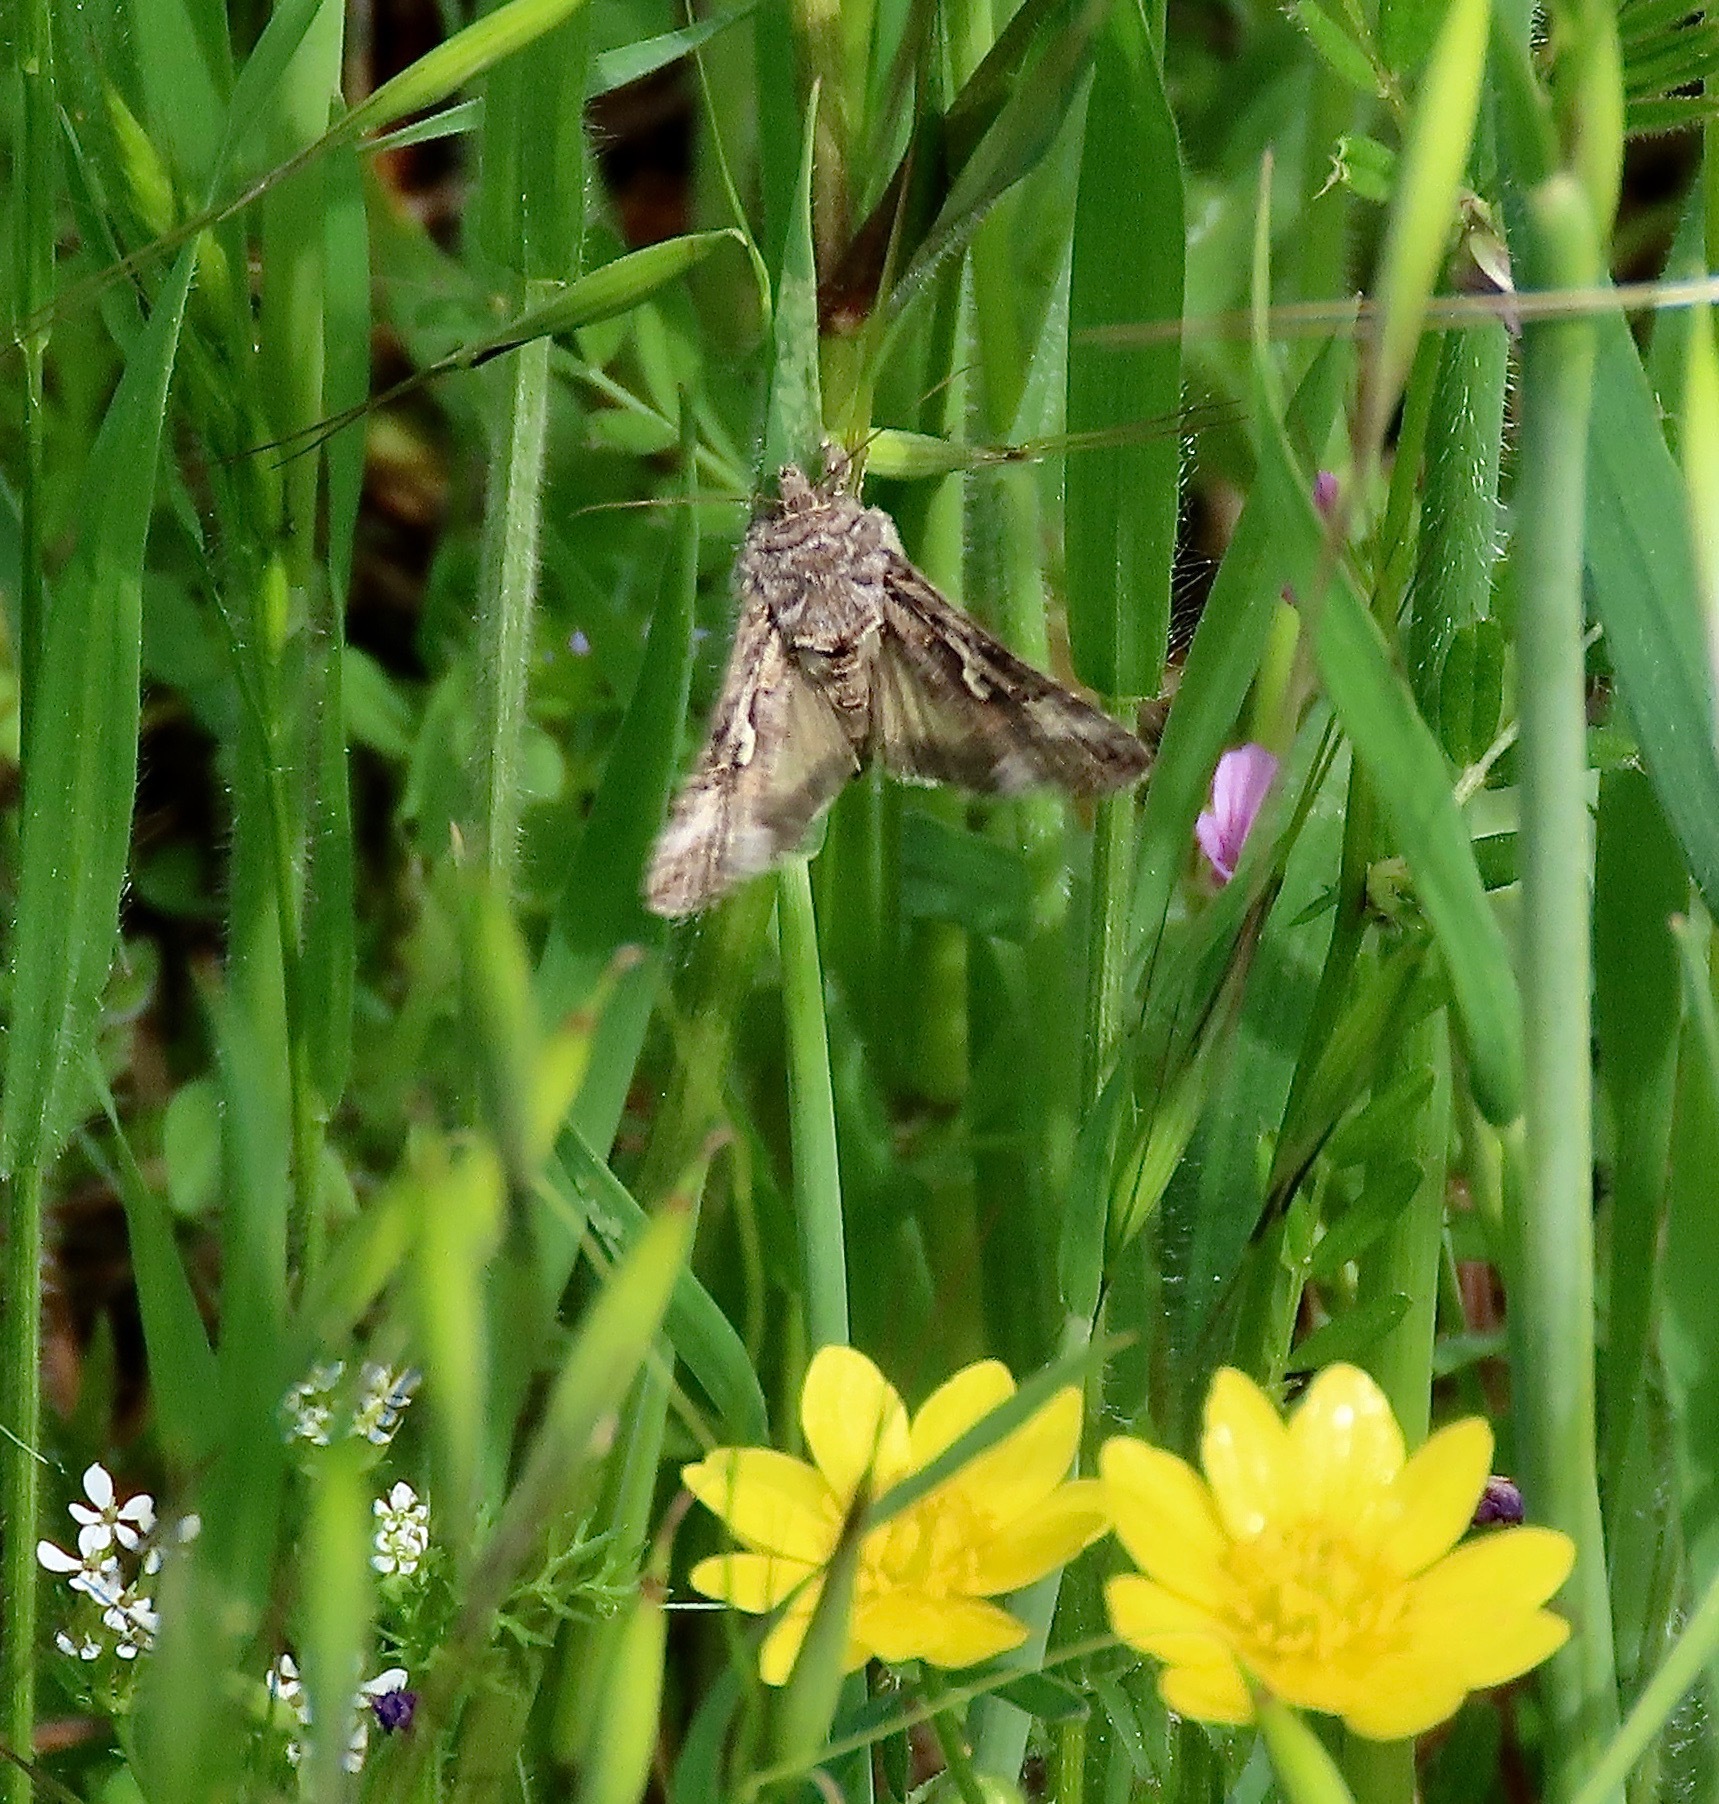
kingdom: Animalia
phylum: Arthropoda
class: Insecta
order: Lepidoptera
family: Noctuidae
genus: Autographa
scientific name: Autographa californica
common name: Alfalfa looper
